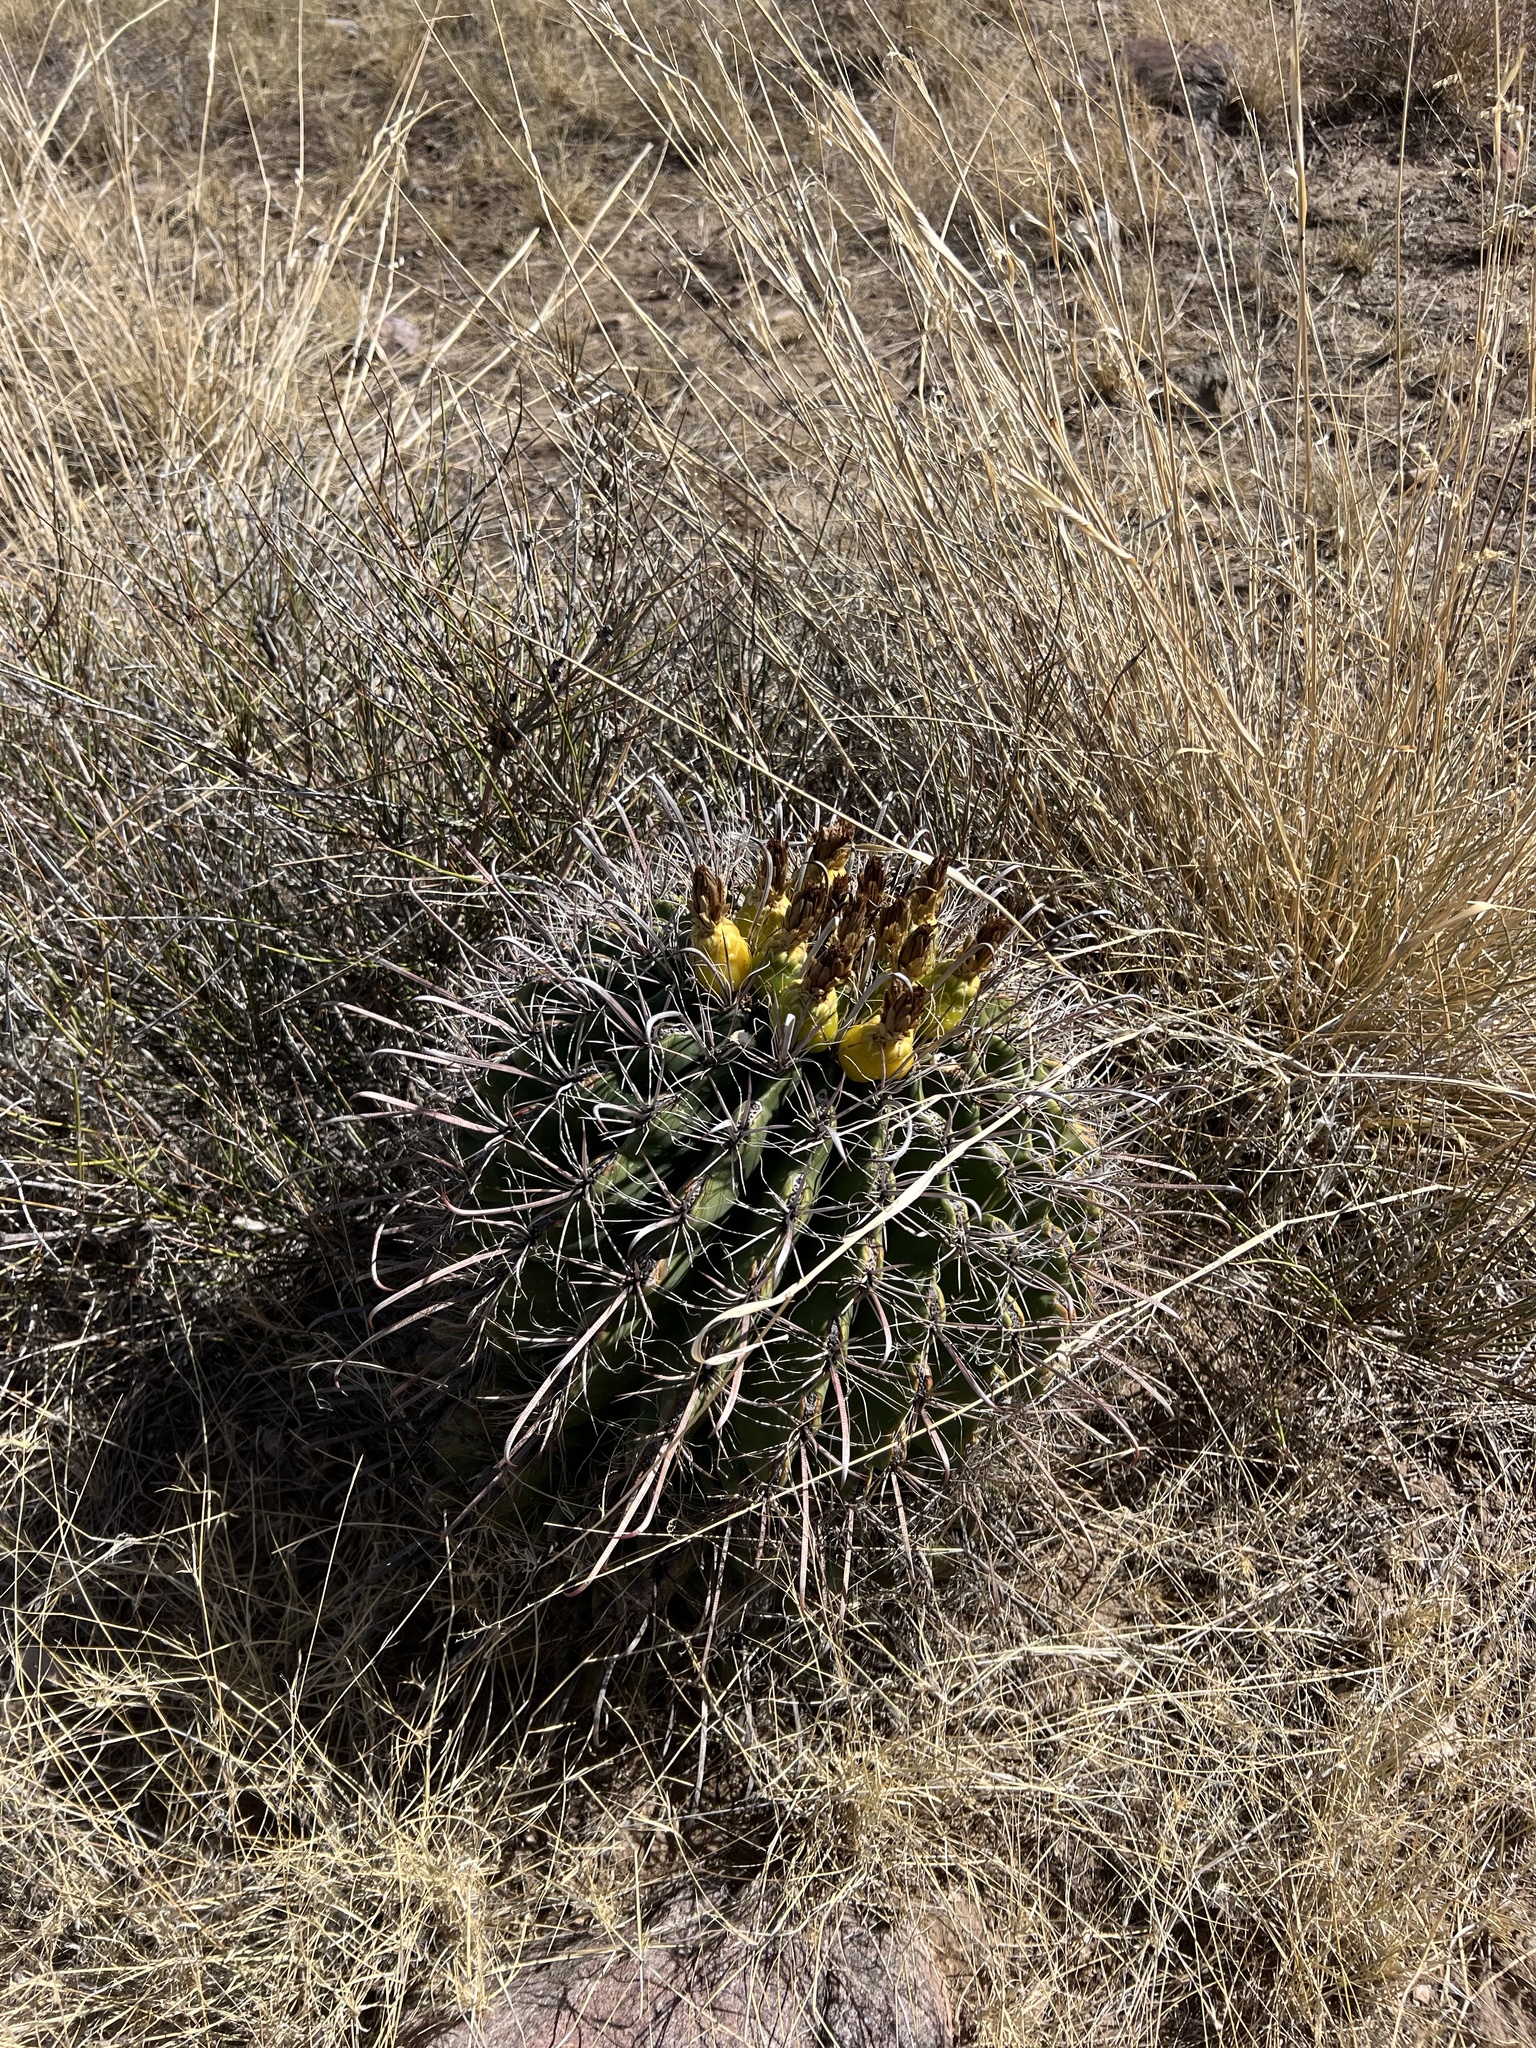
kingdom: Plantae
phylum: Tracheophyta
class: Magnoliopsida
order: Caryophyllales
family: Cactaceae
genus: Ferocactus
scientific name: Ferocactus wislizeni
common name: Candy barrel cactus
